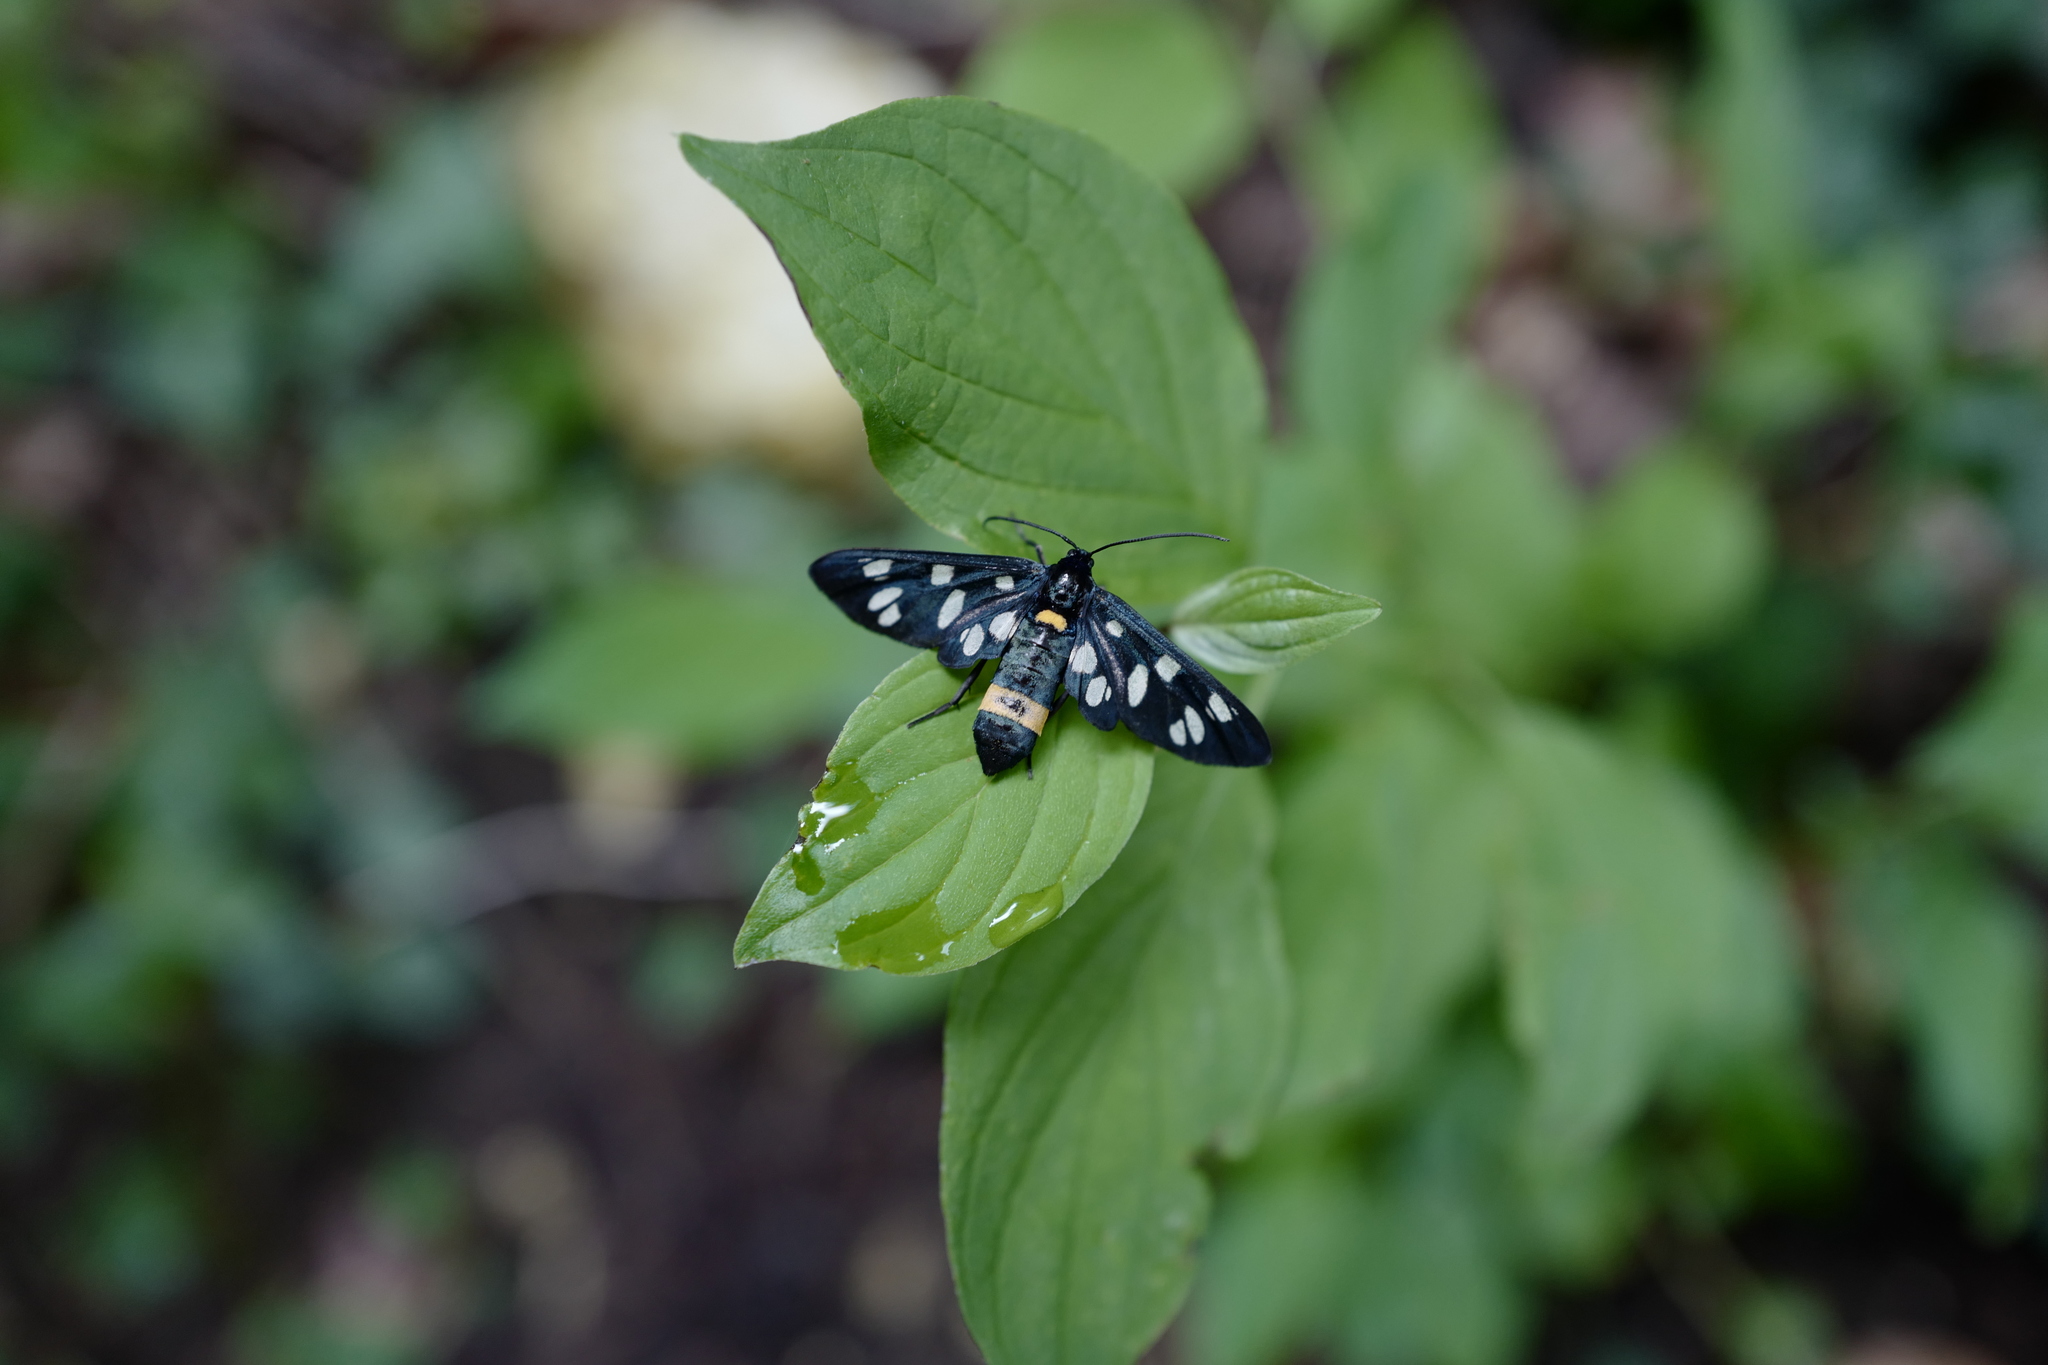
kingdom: Animalia
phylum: Arthropoda
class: Insecta
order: Lepidoptera
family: Erebidae
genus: Amata
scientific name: Amata phegea
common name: Nine-spotted
